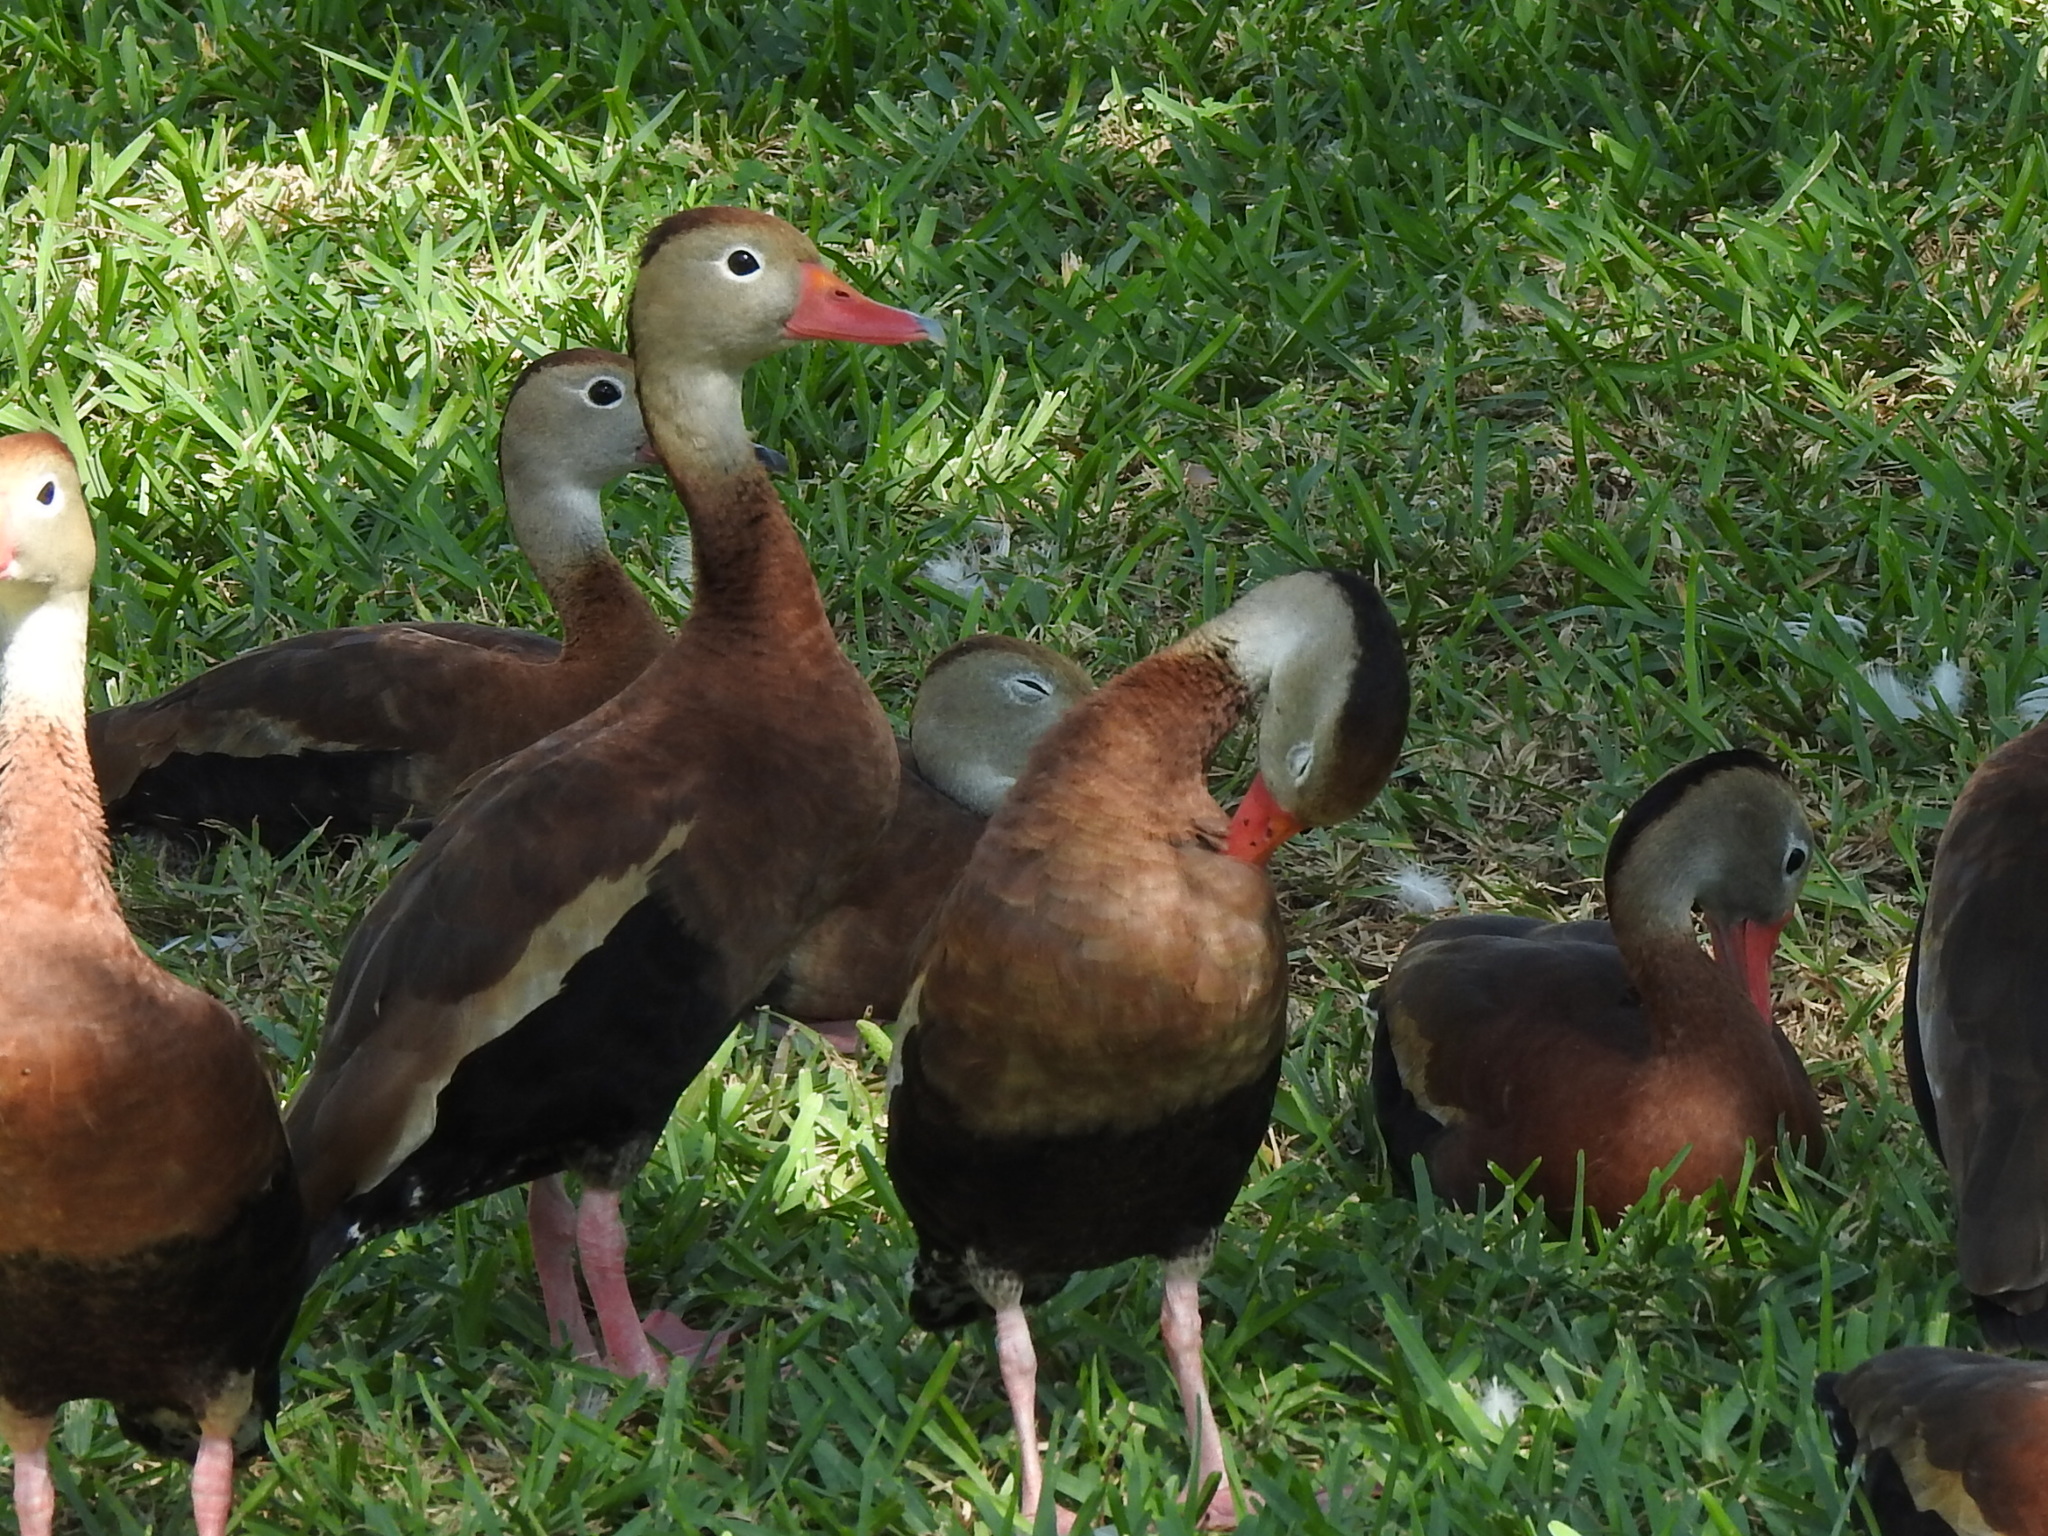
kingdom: Animalia
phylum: Chordata
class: Aves
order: Anseriformes
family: Anatidae
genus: Dendrocygna
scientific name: Dendrocygna autumnalis
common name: Black-bellied whistling duck
